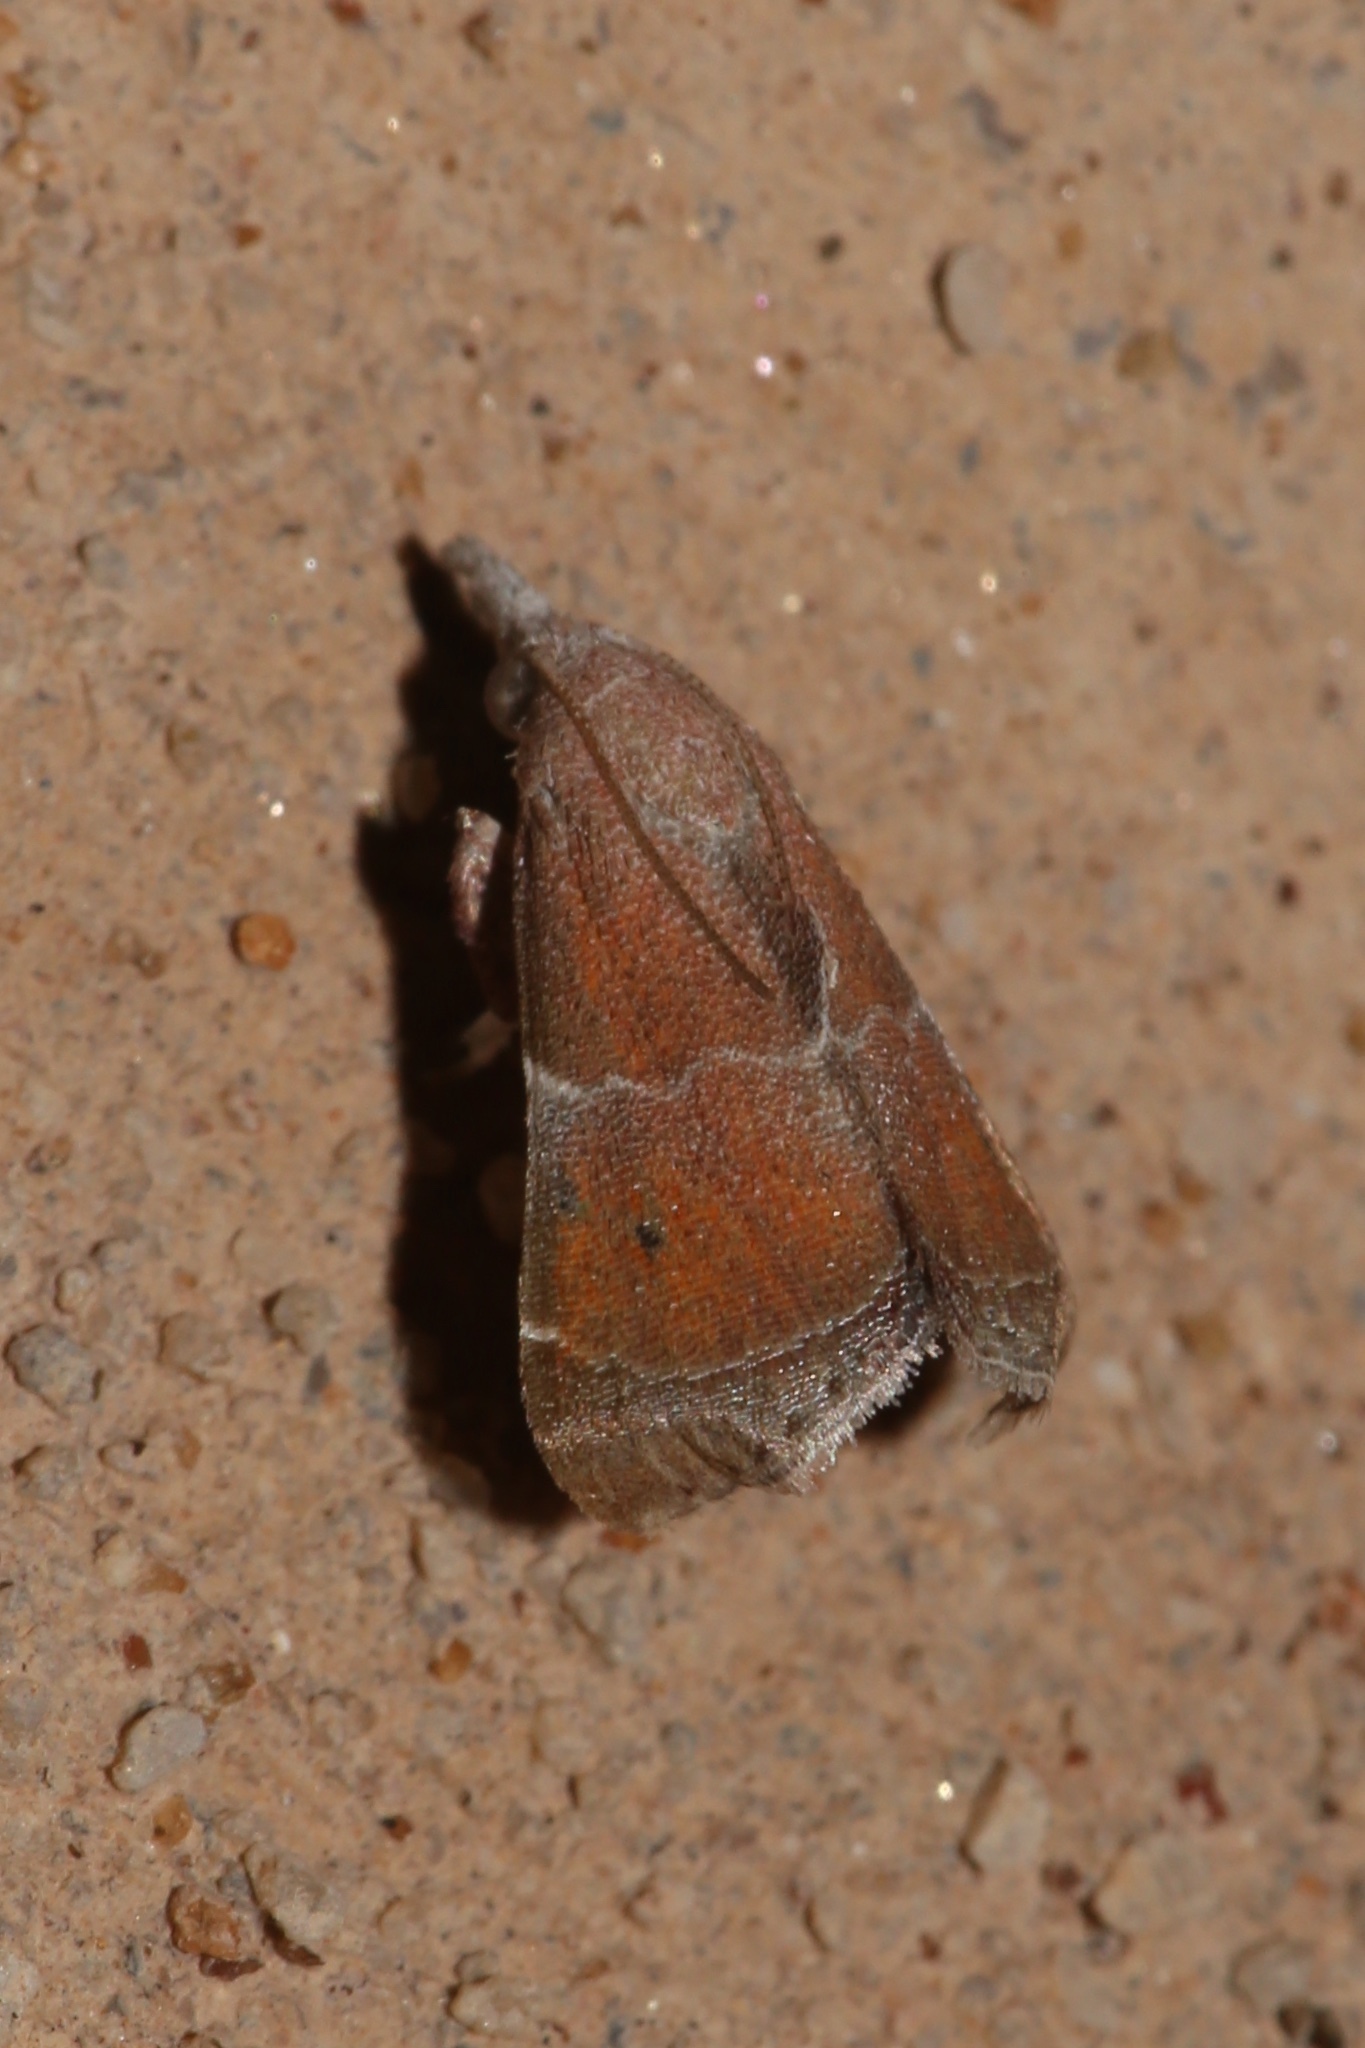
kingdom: Animalia
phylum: Arthropoda
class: Insecta
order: Lepidoptera
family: Pyralidae
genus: Streptopalpia
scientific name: Streptopalpia minusculalis
